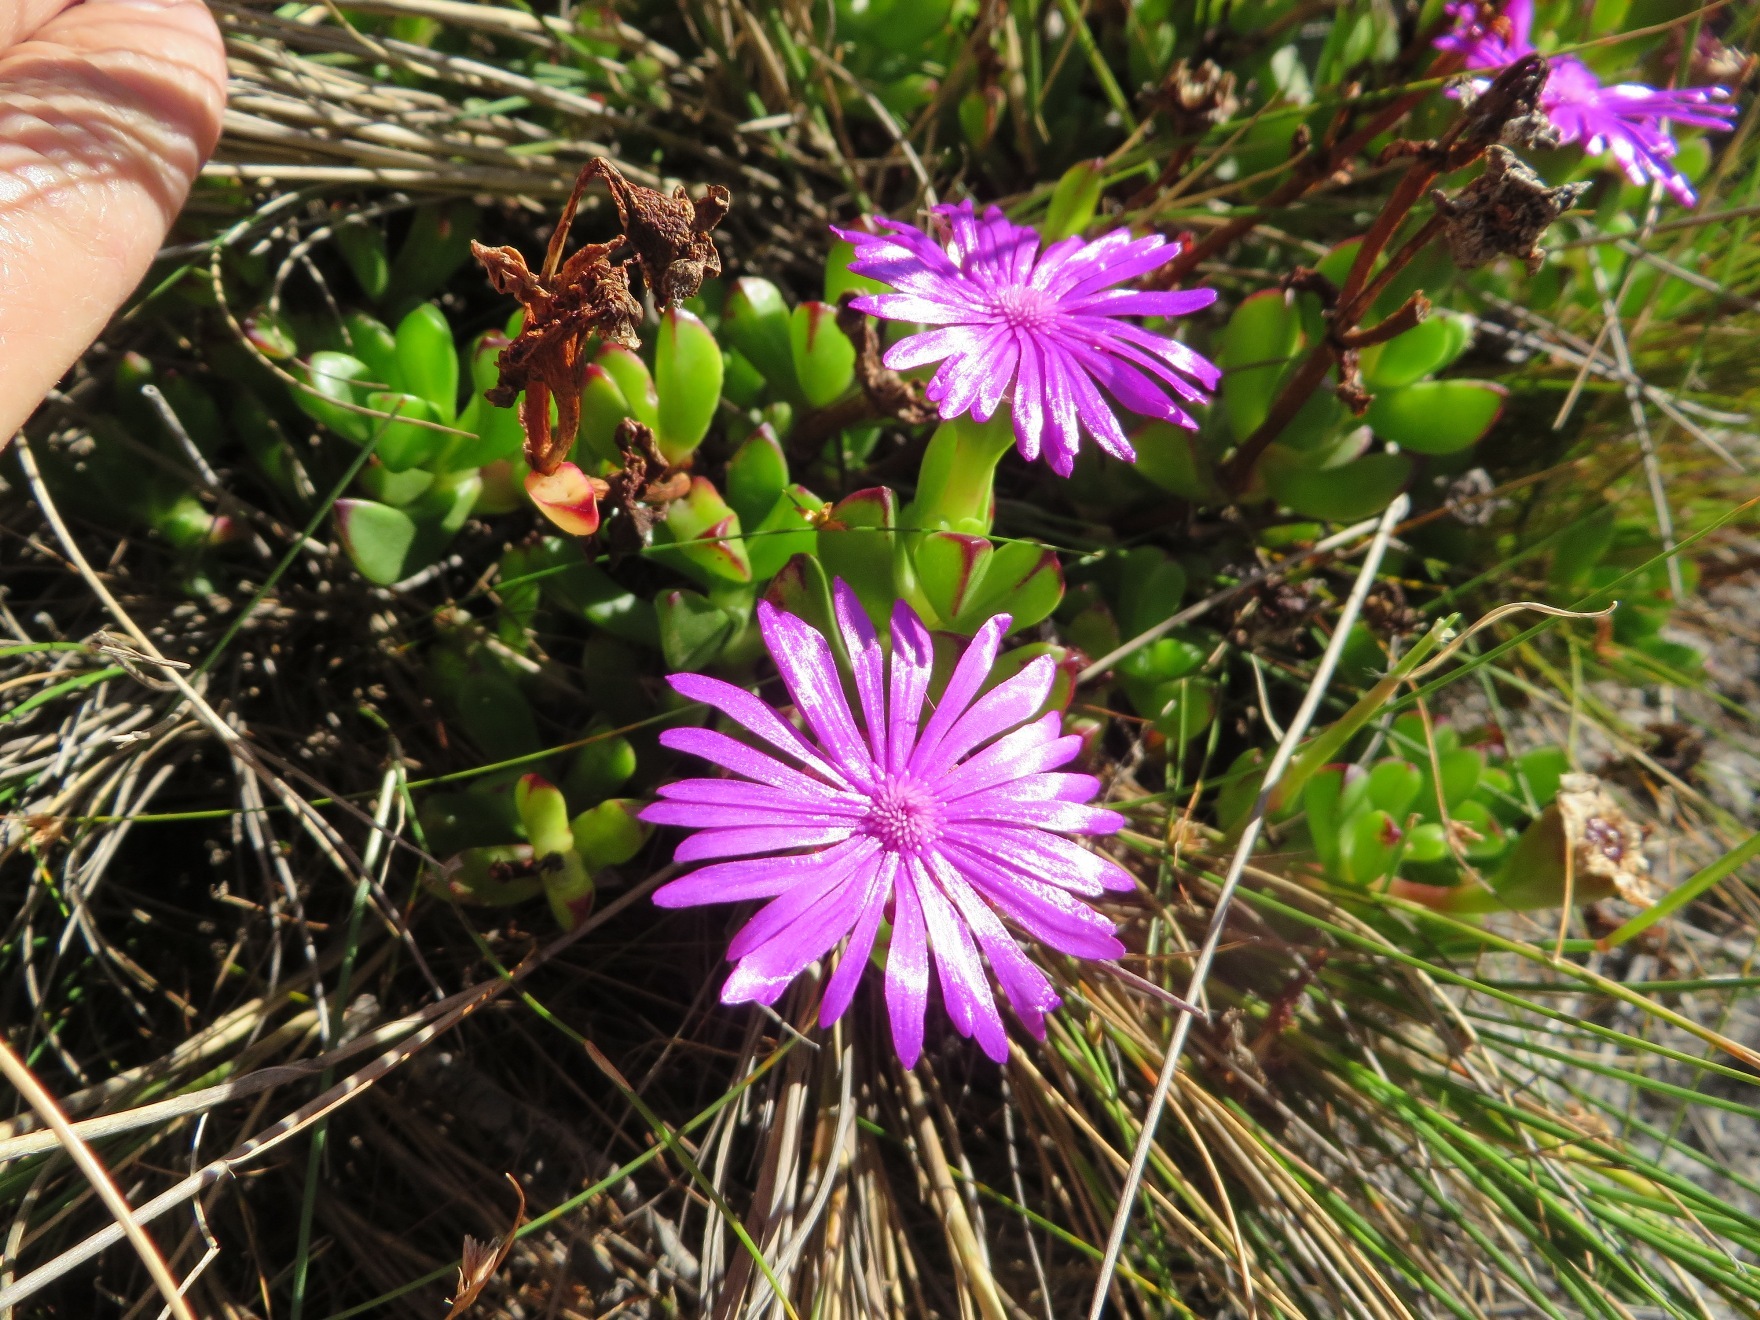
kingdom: Plantae
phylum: Tracheophyta
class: Magnoliopsida
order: Caryophyllales
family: Aizoaceae
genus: Erepsia
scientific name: Erepsia inclaudens
